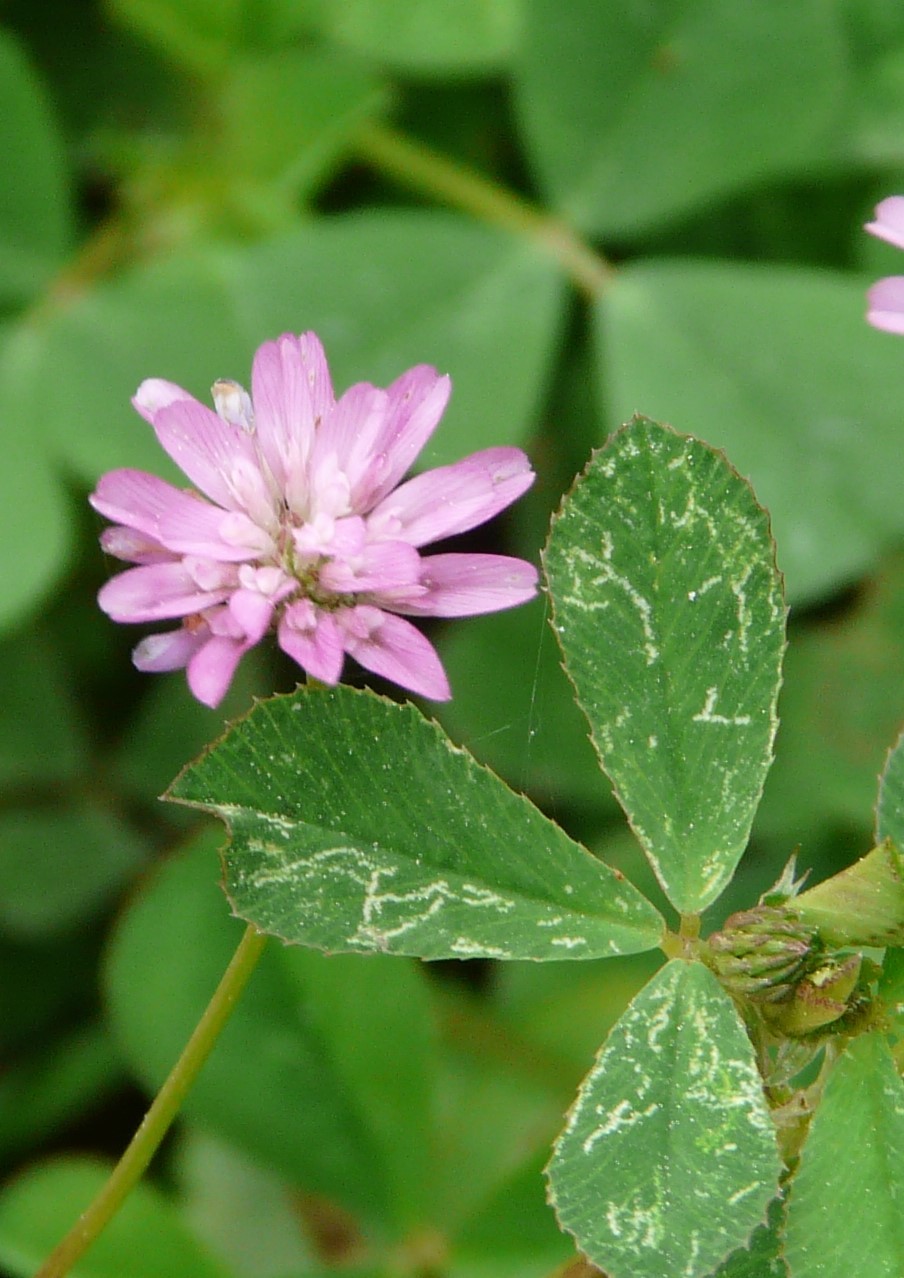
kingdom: Plantae
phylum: Tracheophyta
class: Magnoliopsida
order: Fabales
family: Fabaceae
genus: Trifolium
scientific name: Trifolium resupinatum
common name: Reversed clover
